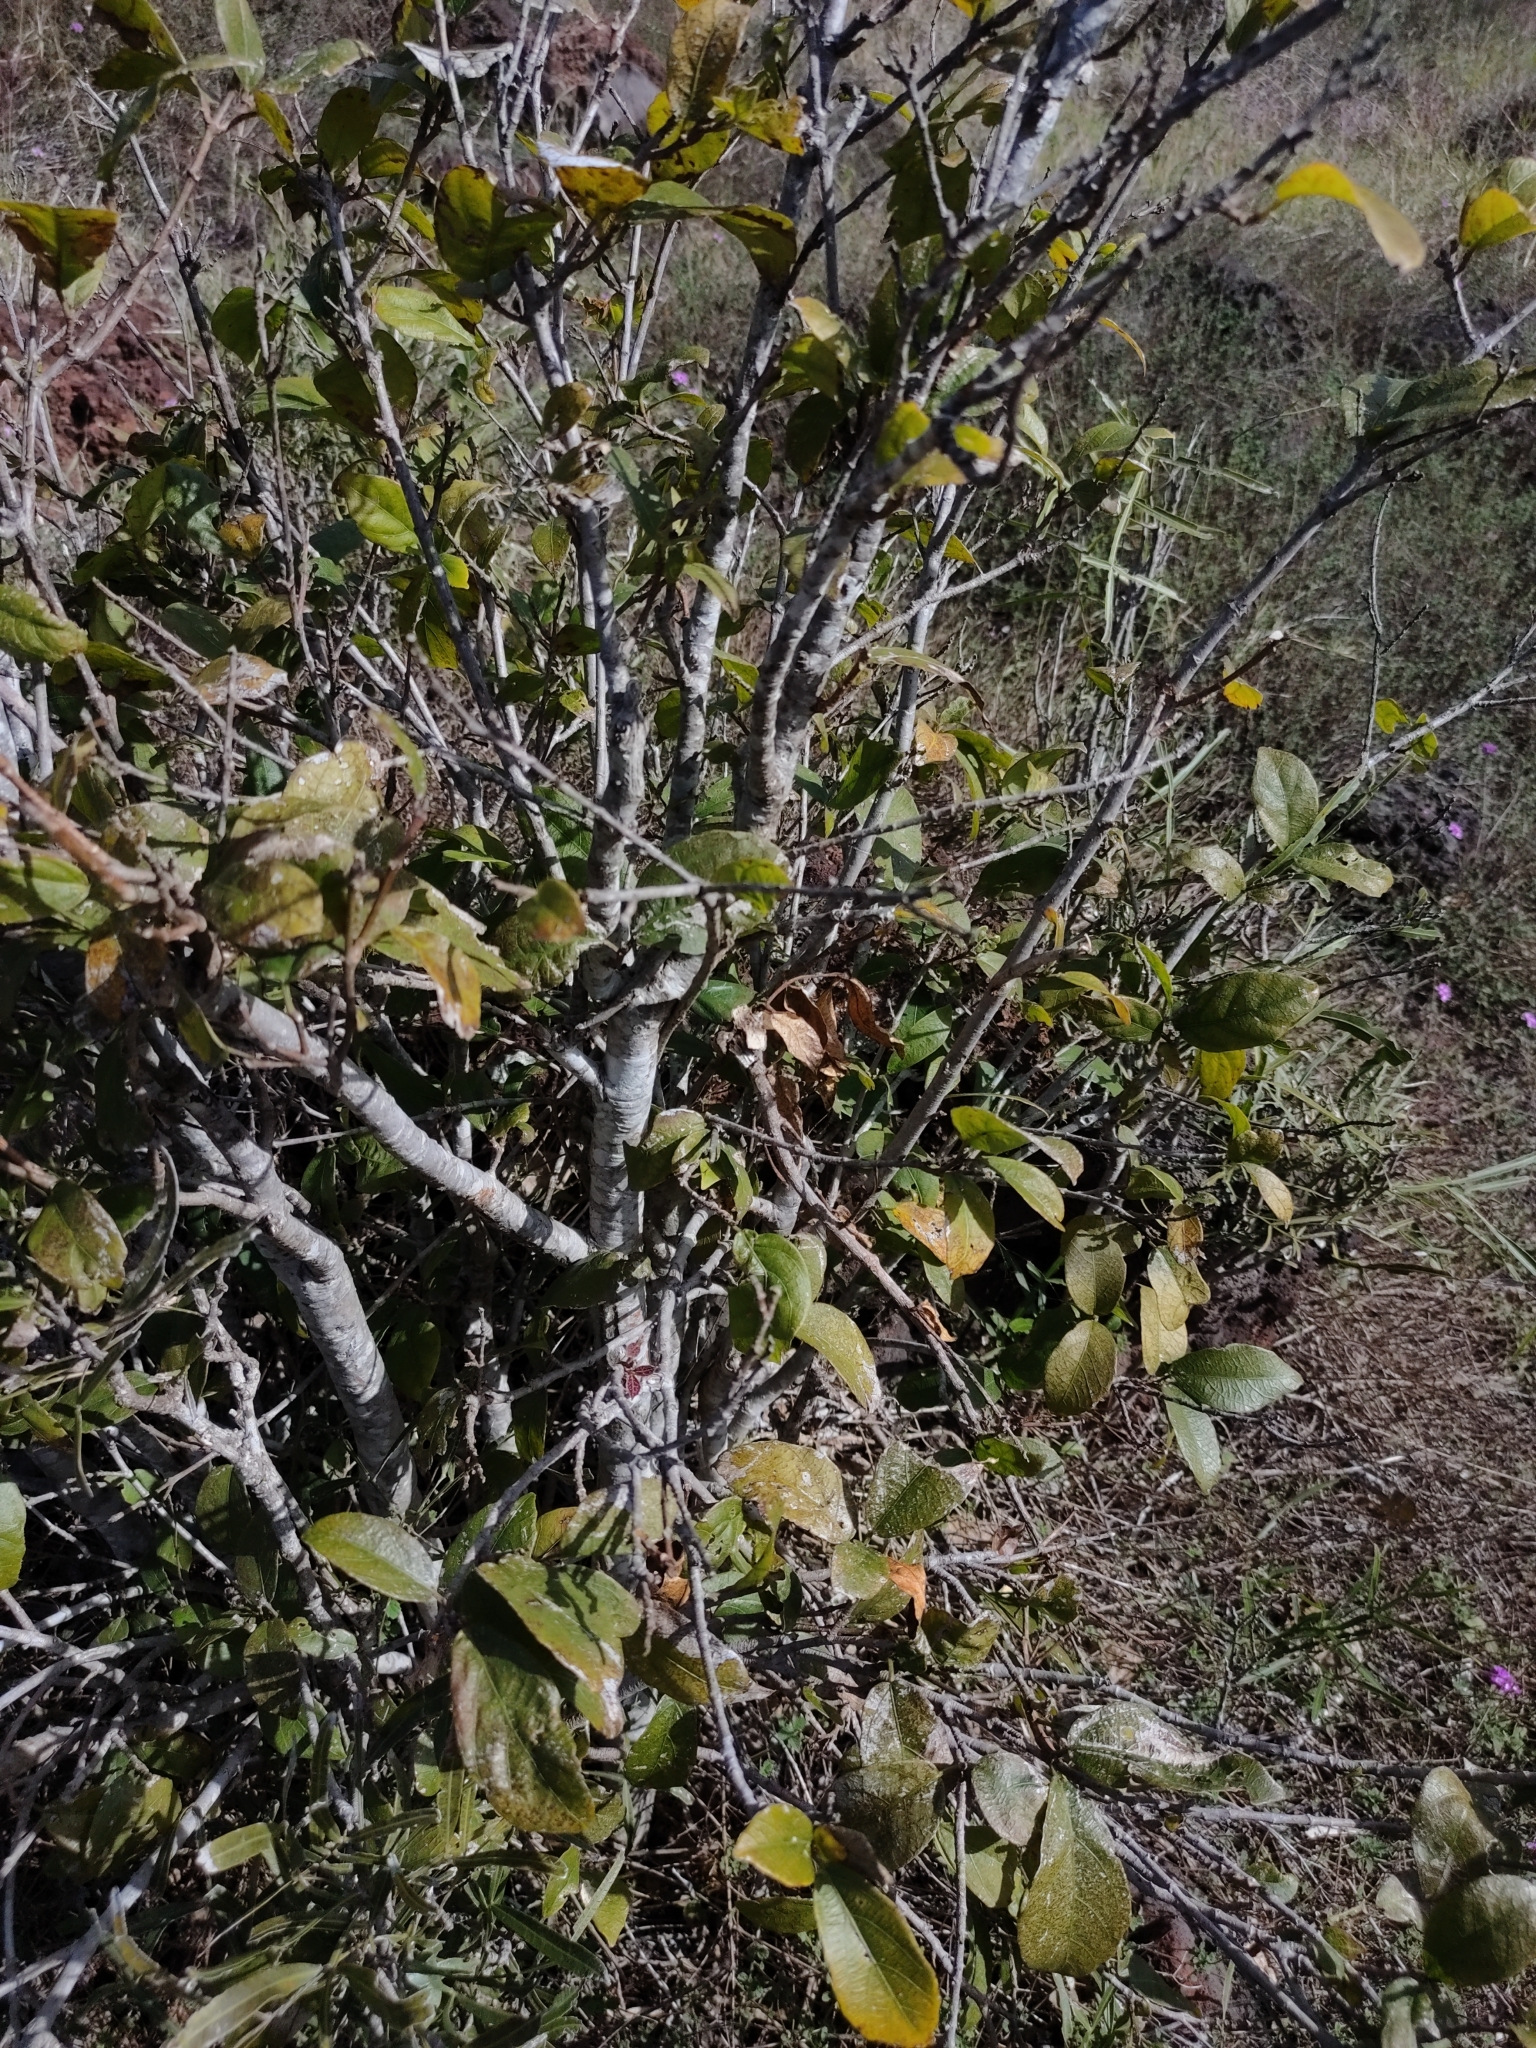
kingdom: Plantae
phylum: Tracheophyta
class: Magnoliopsida
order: Malpighiales
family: Euphorbiaceae
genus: Mallotus
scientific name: Mallotus claoxyloides
